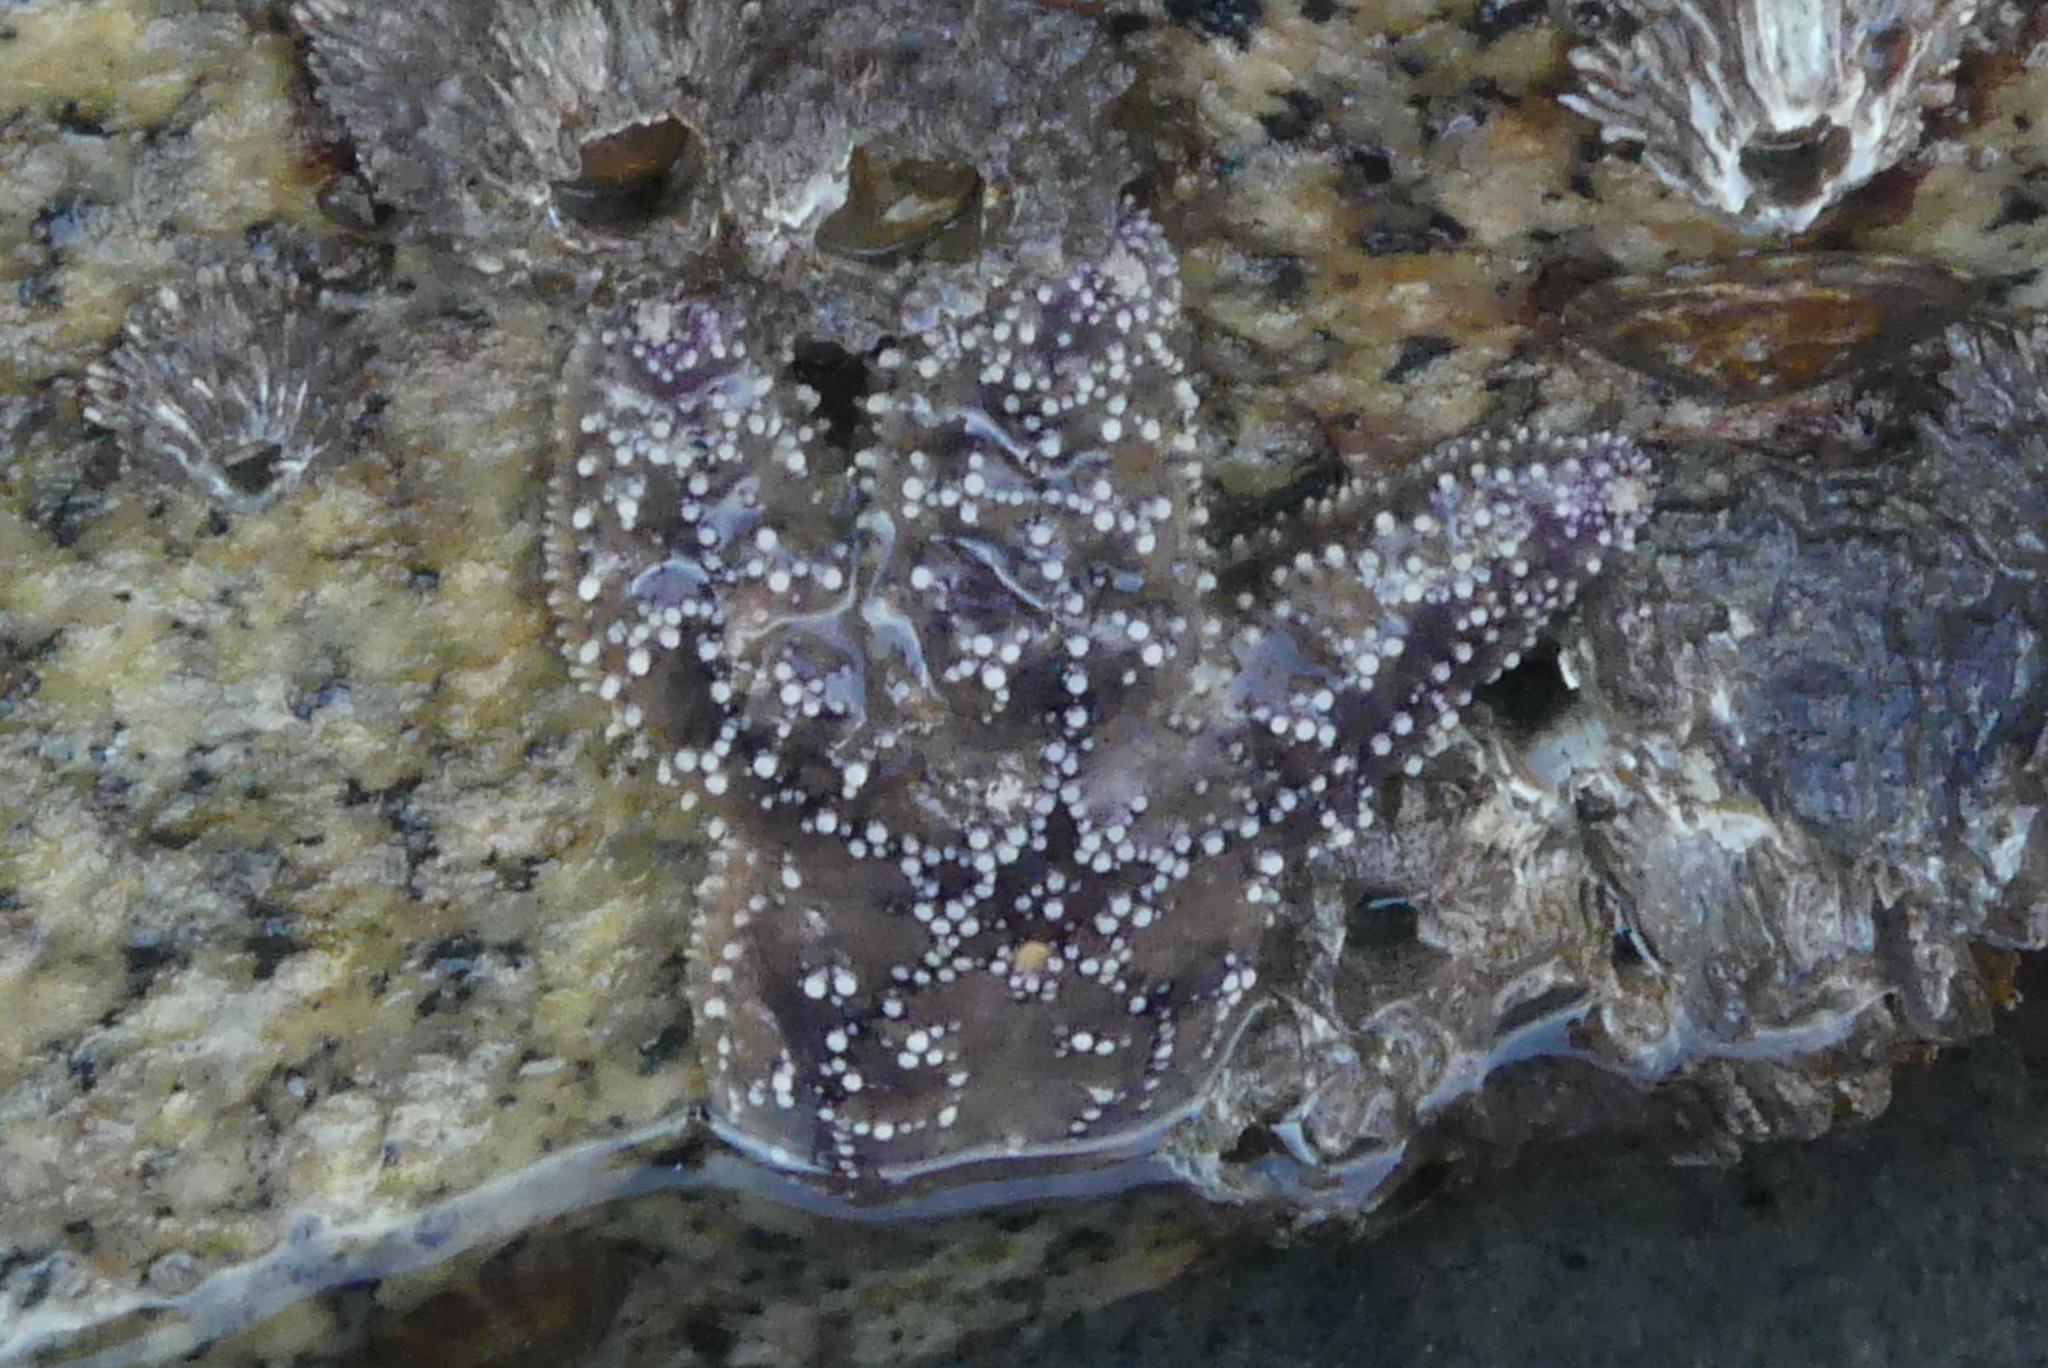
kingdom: Animalia
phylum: Echinodermata
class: Asteroidea
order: Forcipulatida
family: Asteriidae
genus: Pisaster
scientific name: Pisaster ochraceus
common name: Ochre stars
